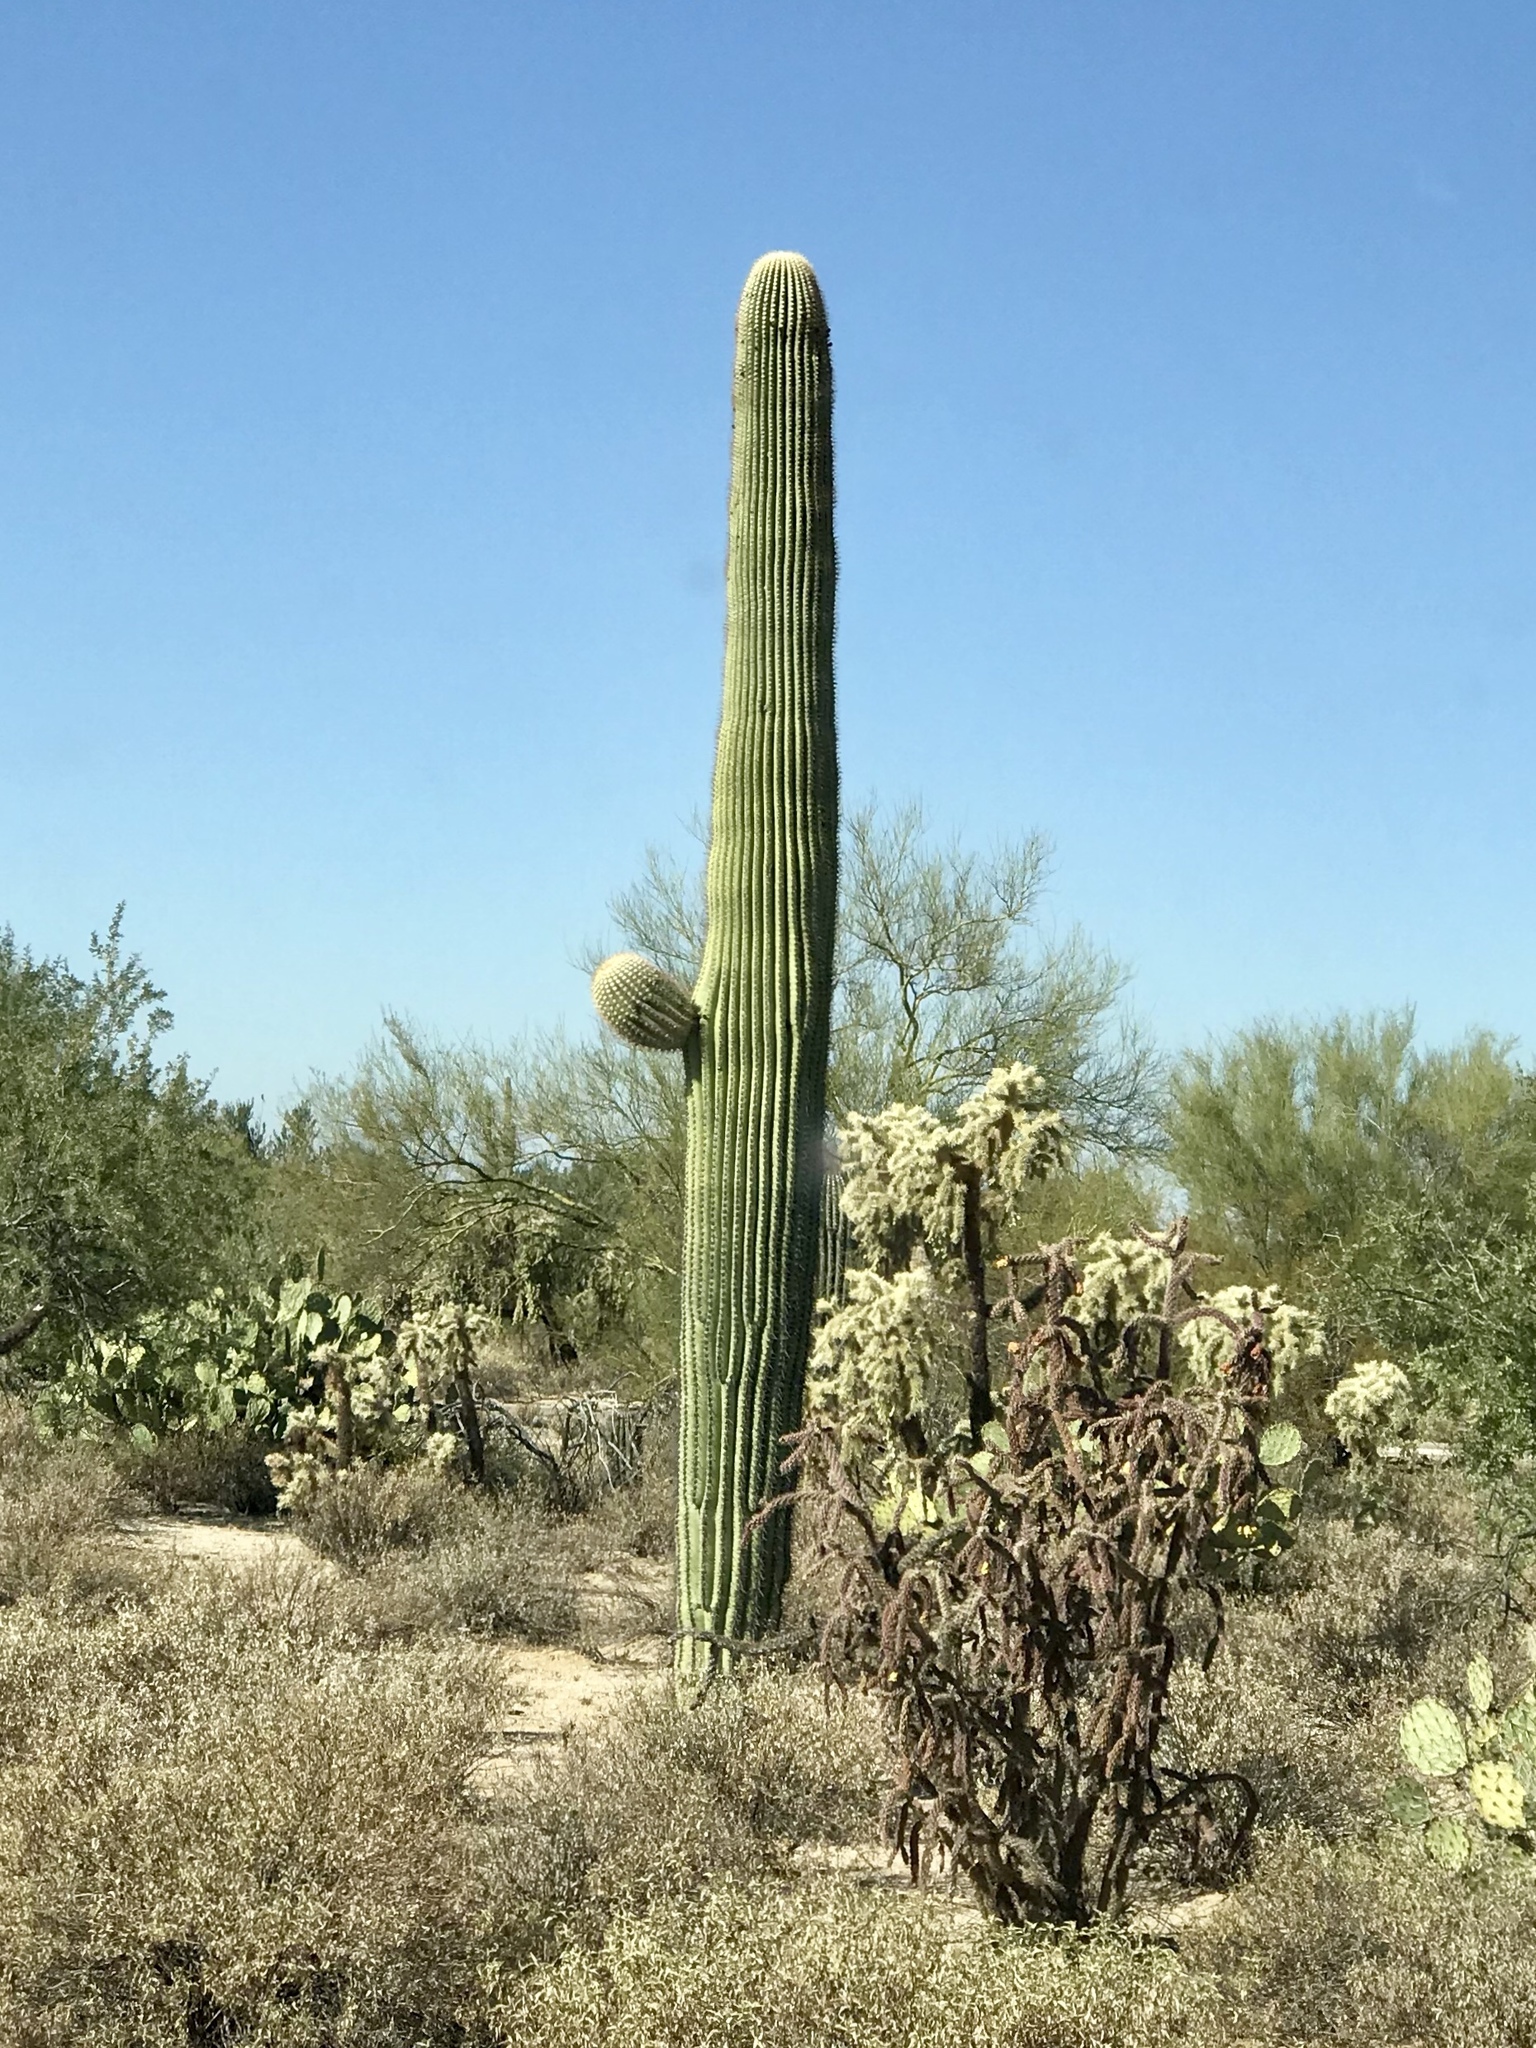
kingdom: Plantae
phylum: Tracheophyta
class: Magnoliopsida
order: Caryophyllales
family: Cactaceae
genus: Carnegiea
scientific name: Carnegiea gigantea
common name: Saguaro
